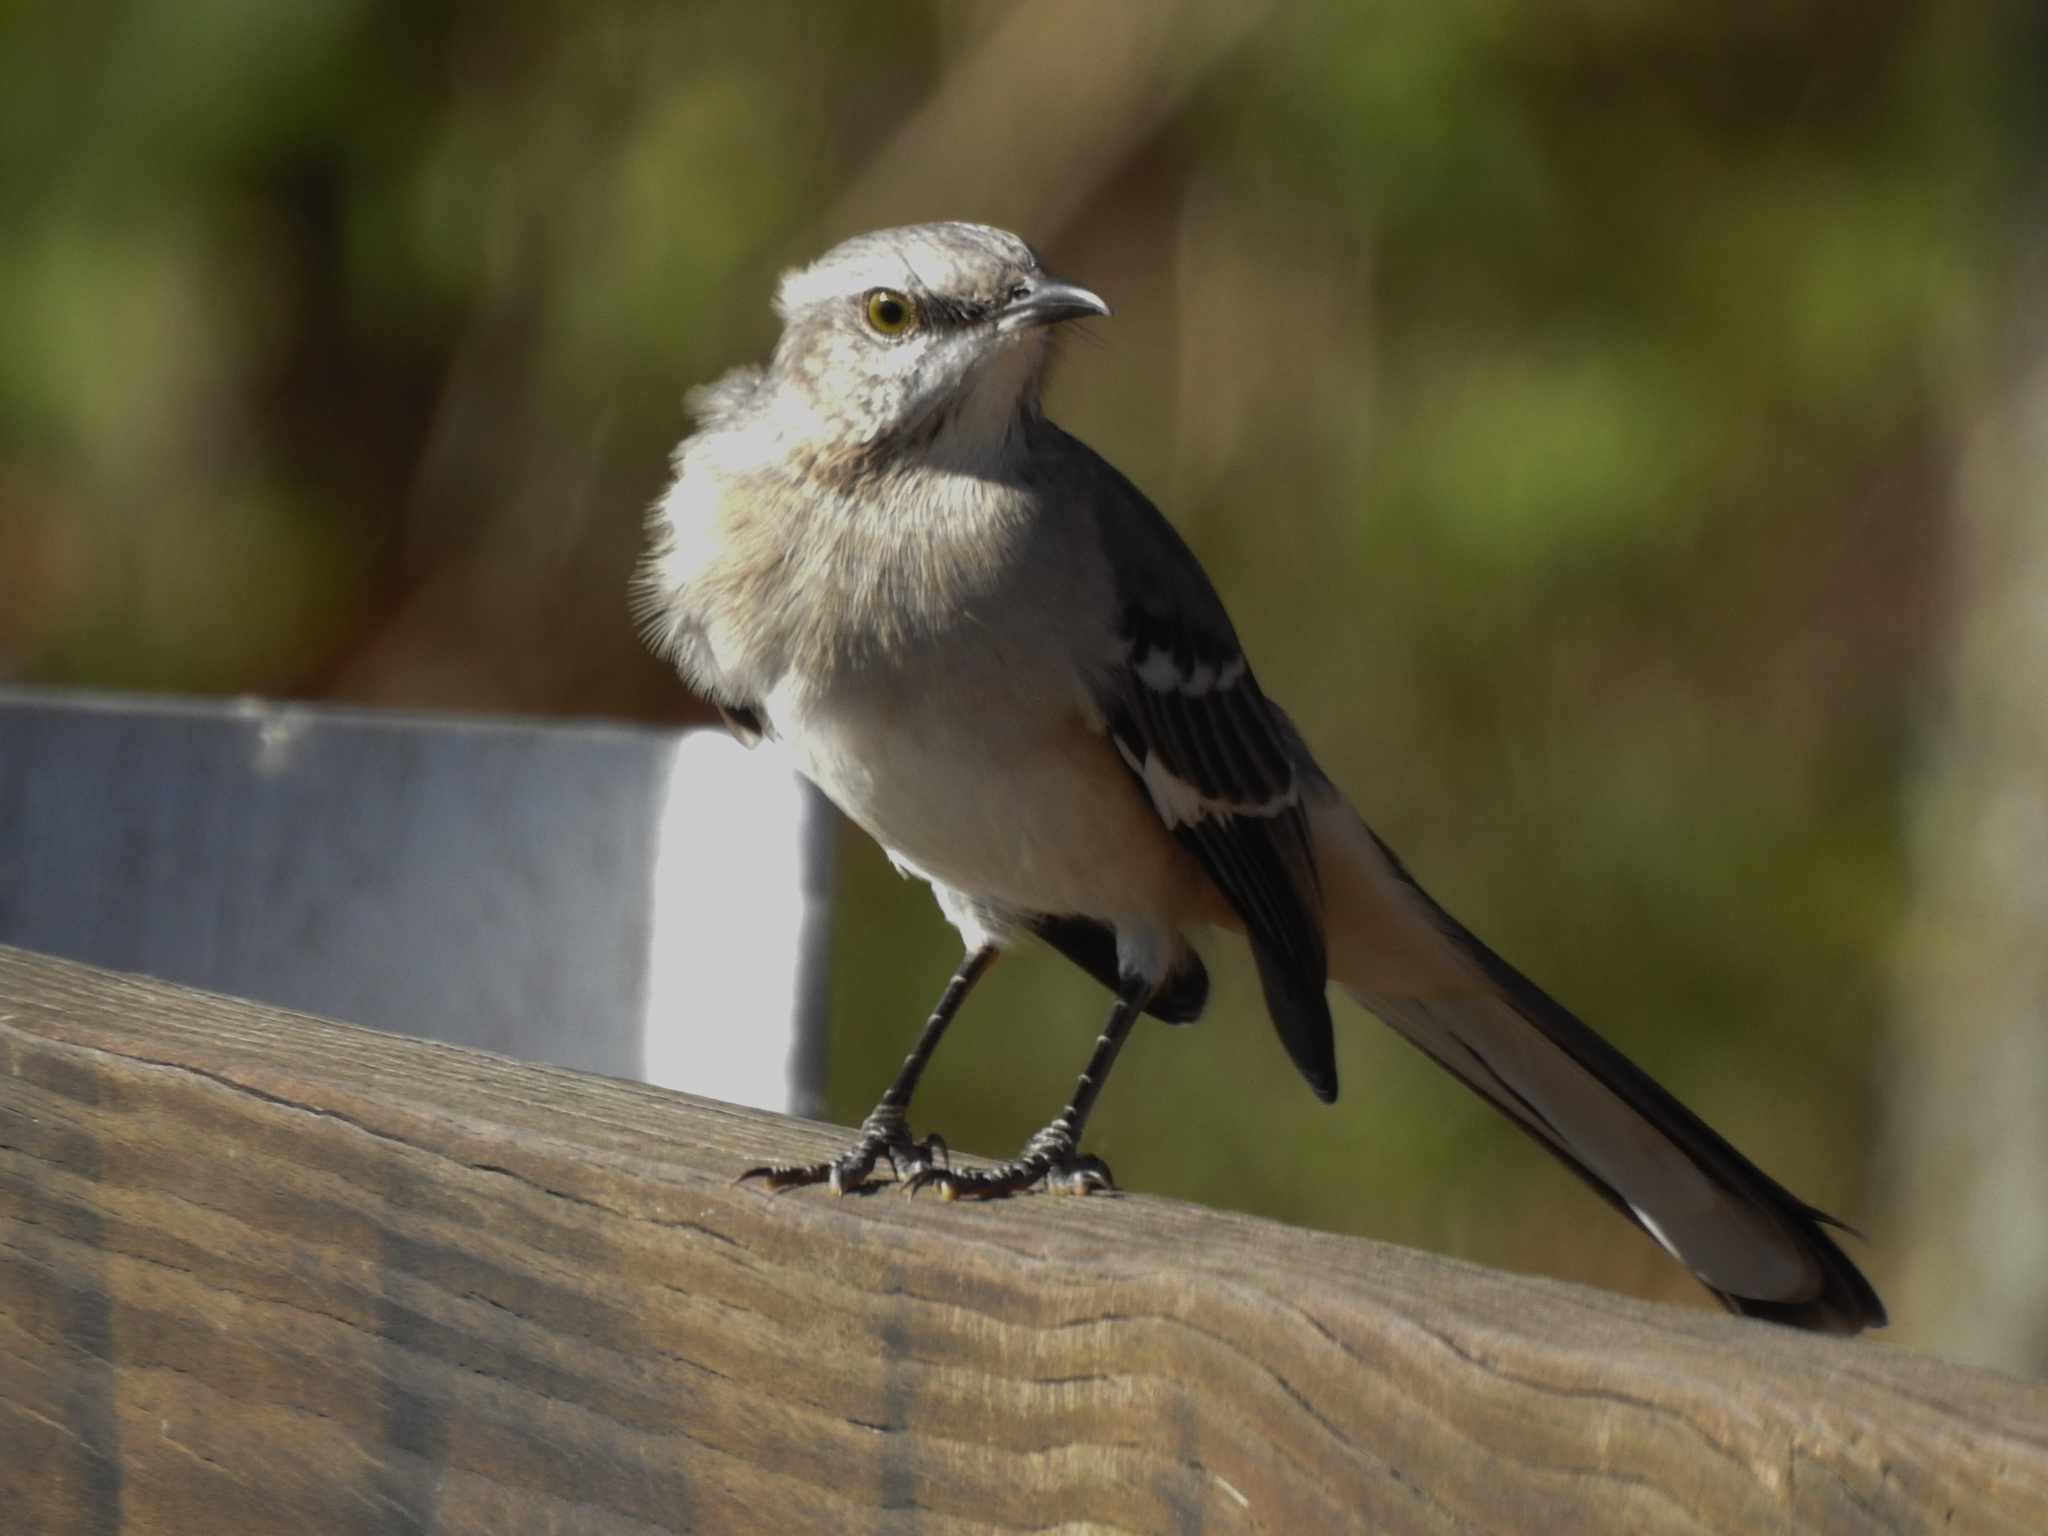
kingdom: Animalia
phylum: Chordata
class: Aves
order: Passeriformes
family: Mimidae
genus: Mimus
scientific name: Mimus polyglottos
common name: Northern mockingbird
